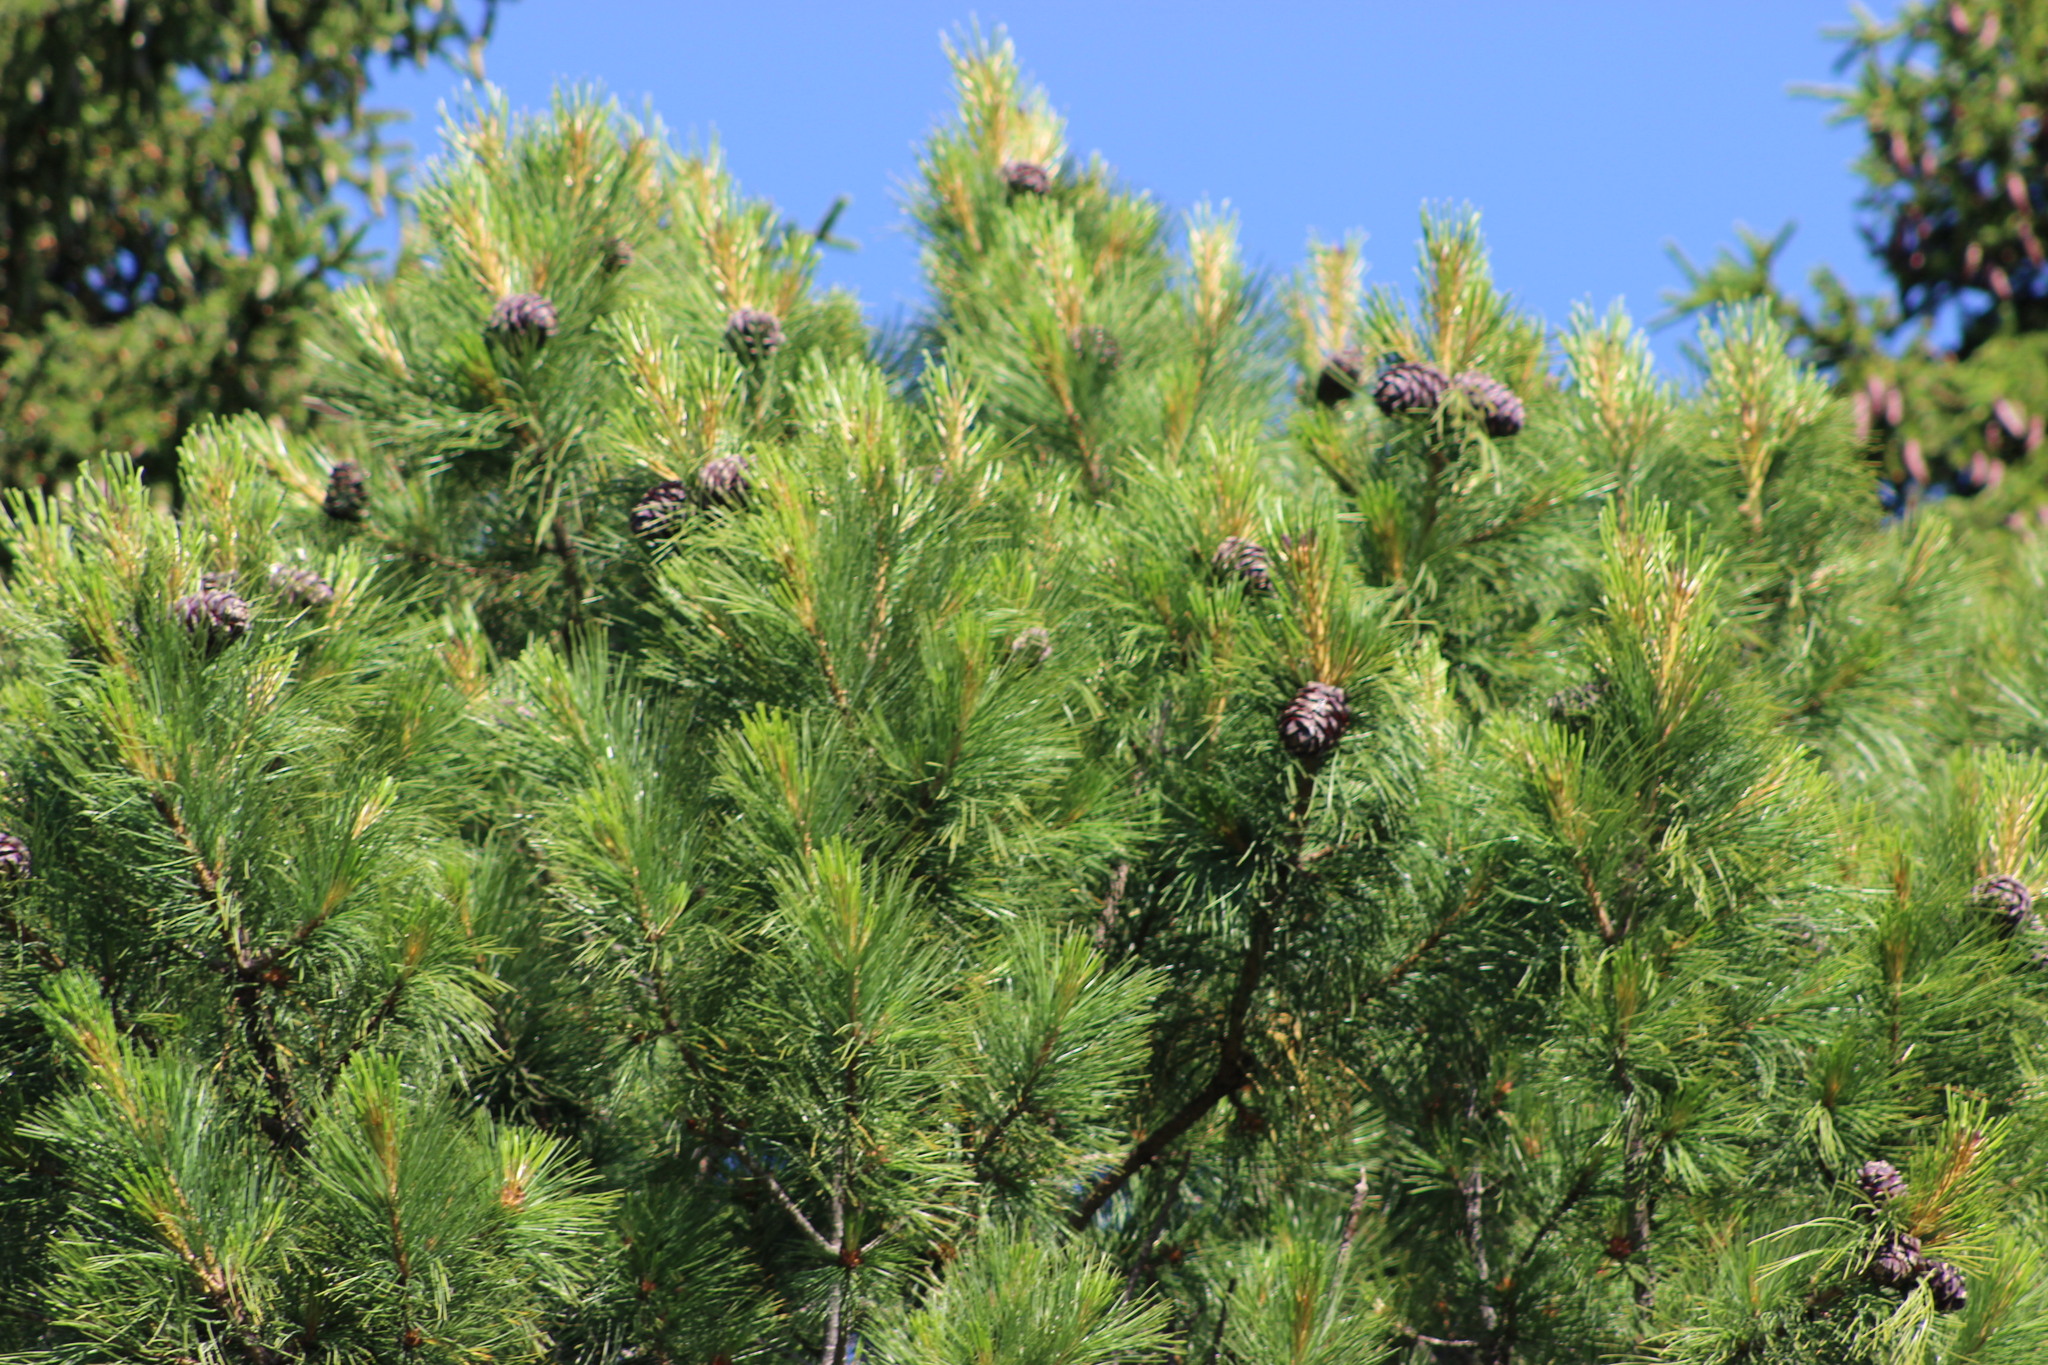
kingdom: Plantae
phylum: Tracheophyta
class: Pinopsida
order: Pinales
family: Pinaceae
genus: Pinus
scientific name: Pinus sibirica
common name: Siberian pine
